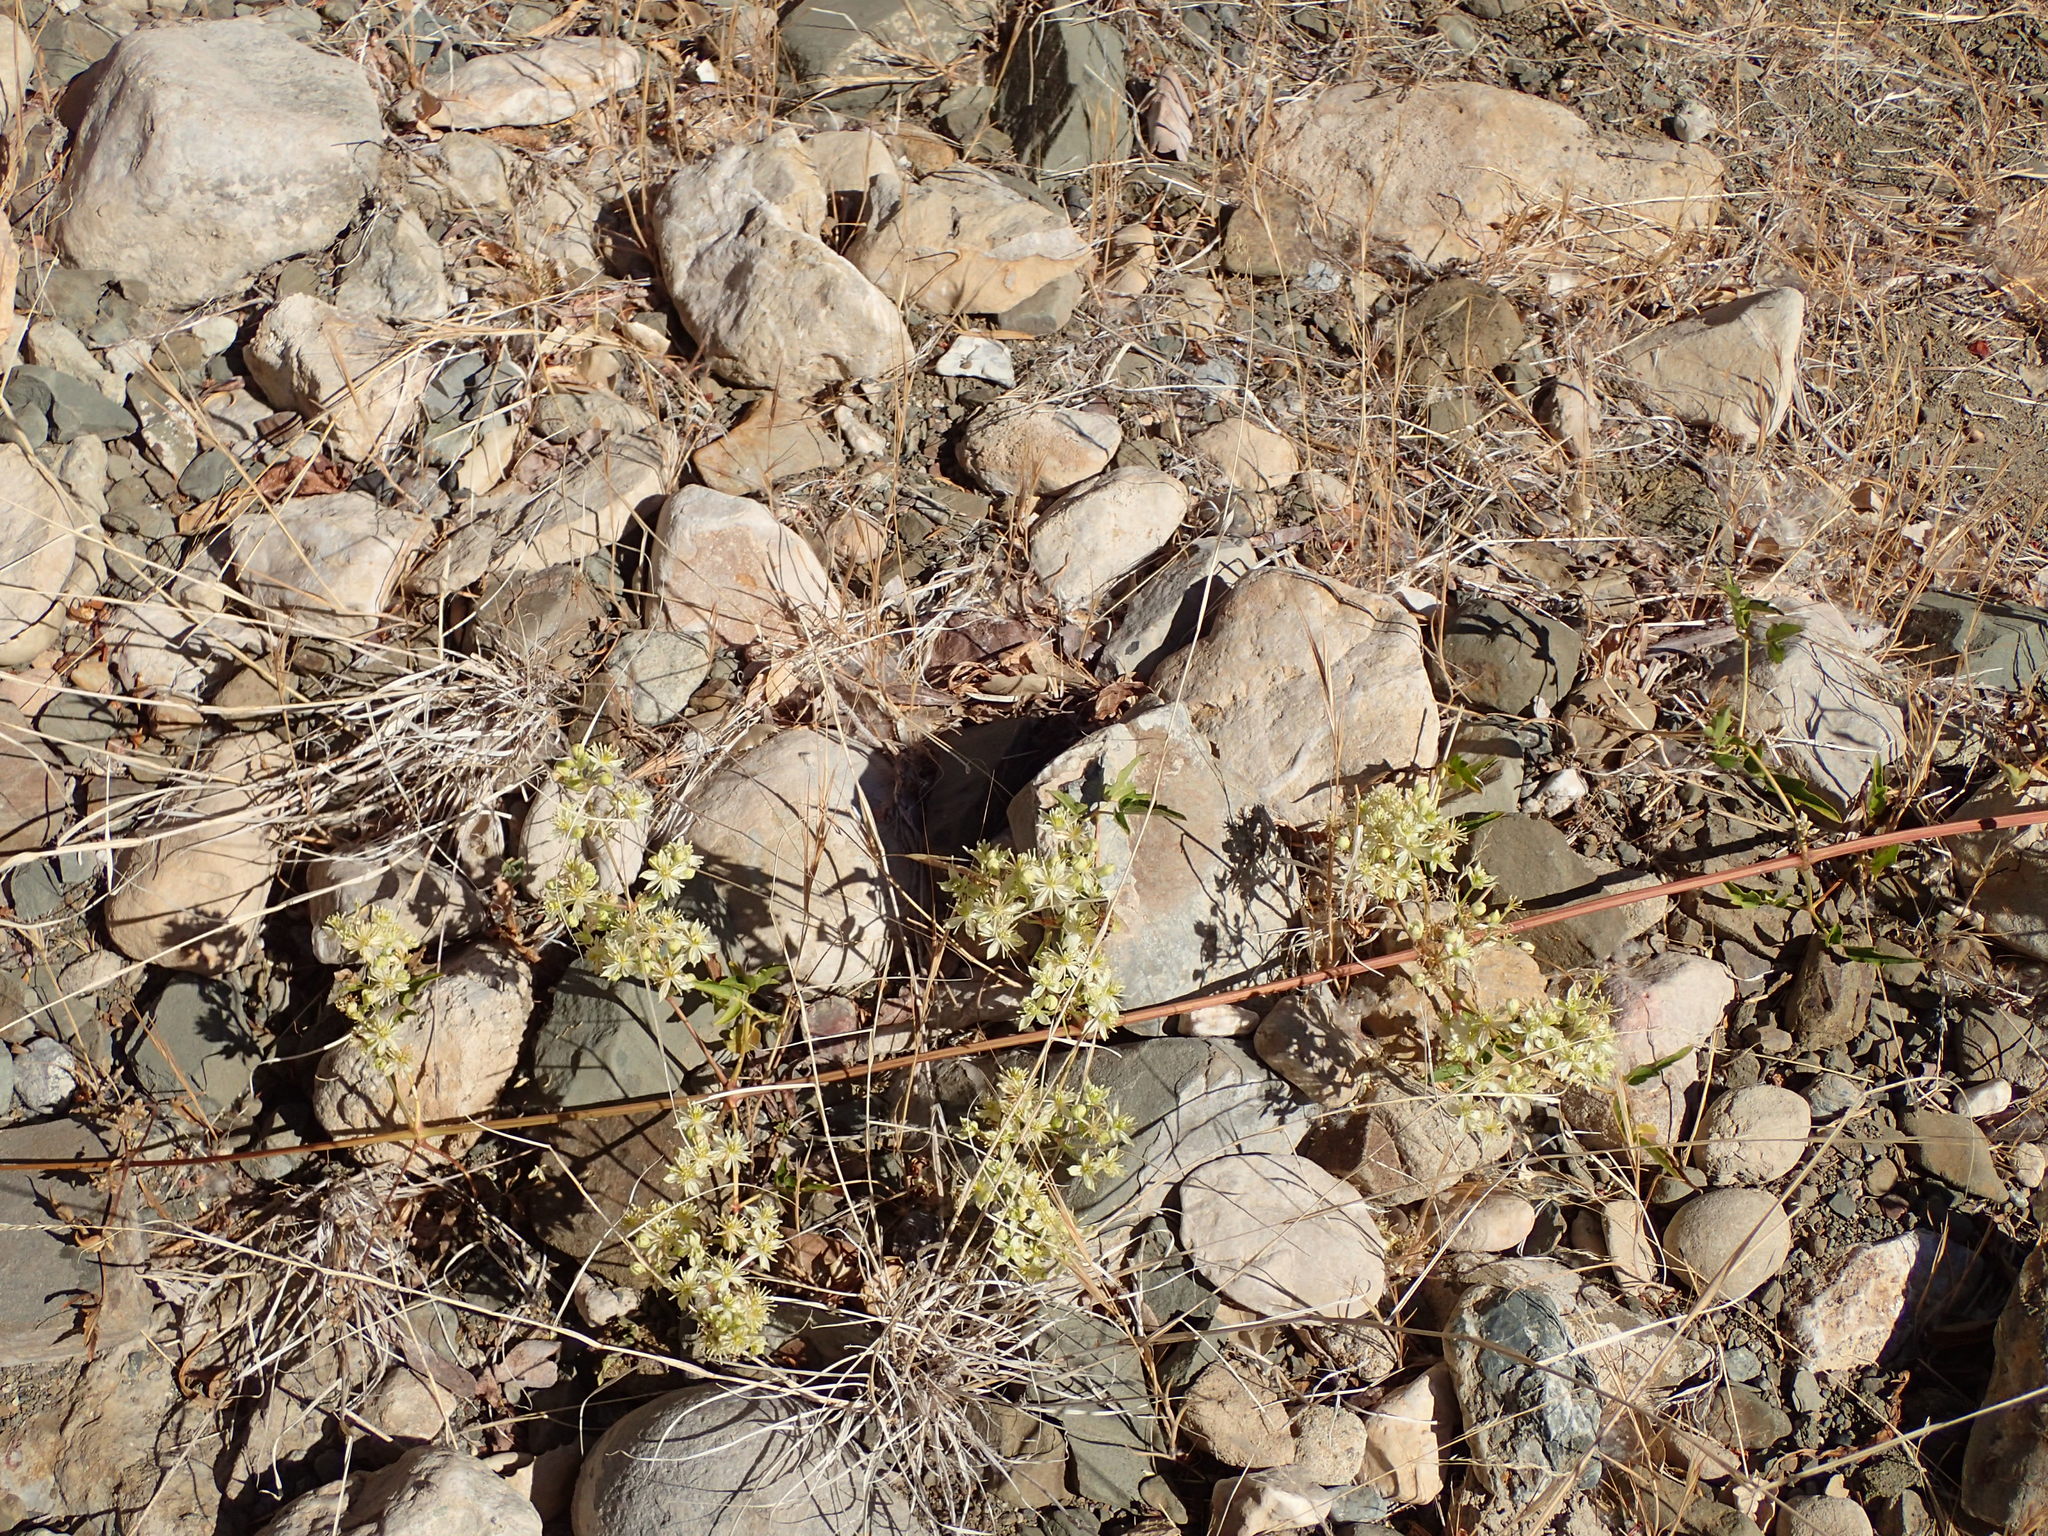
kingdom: Plantae
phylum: Tracheophyta
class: Magnoliopsida
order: Ranunculales
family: Ranunculaceae
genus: Clematis
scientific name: Clematis ligusticifolia
